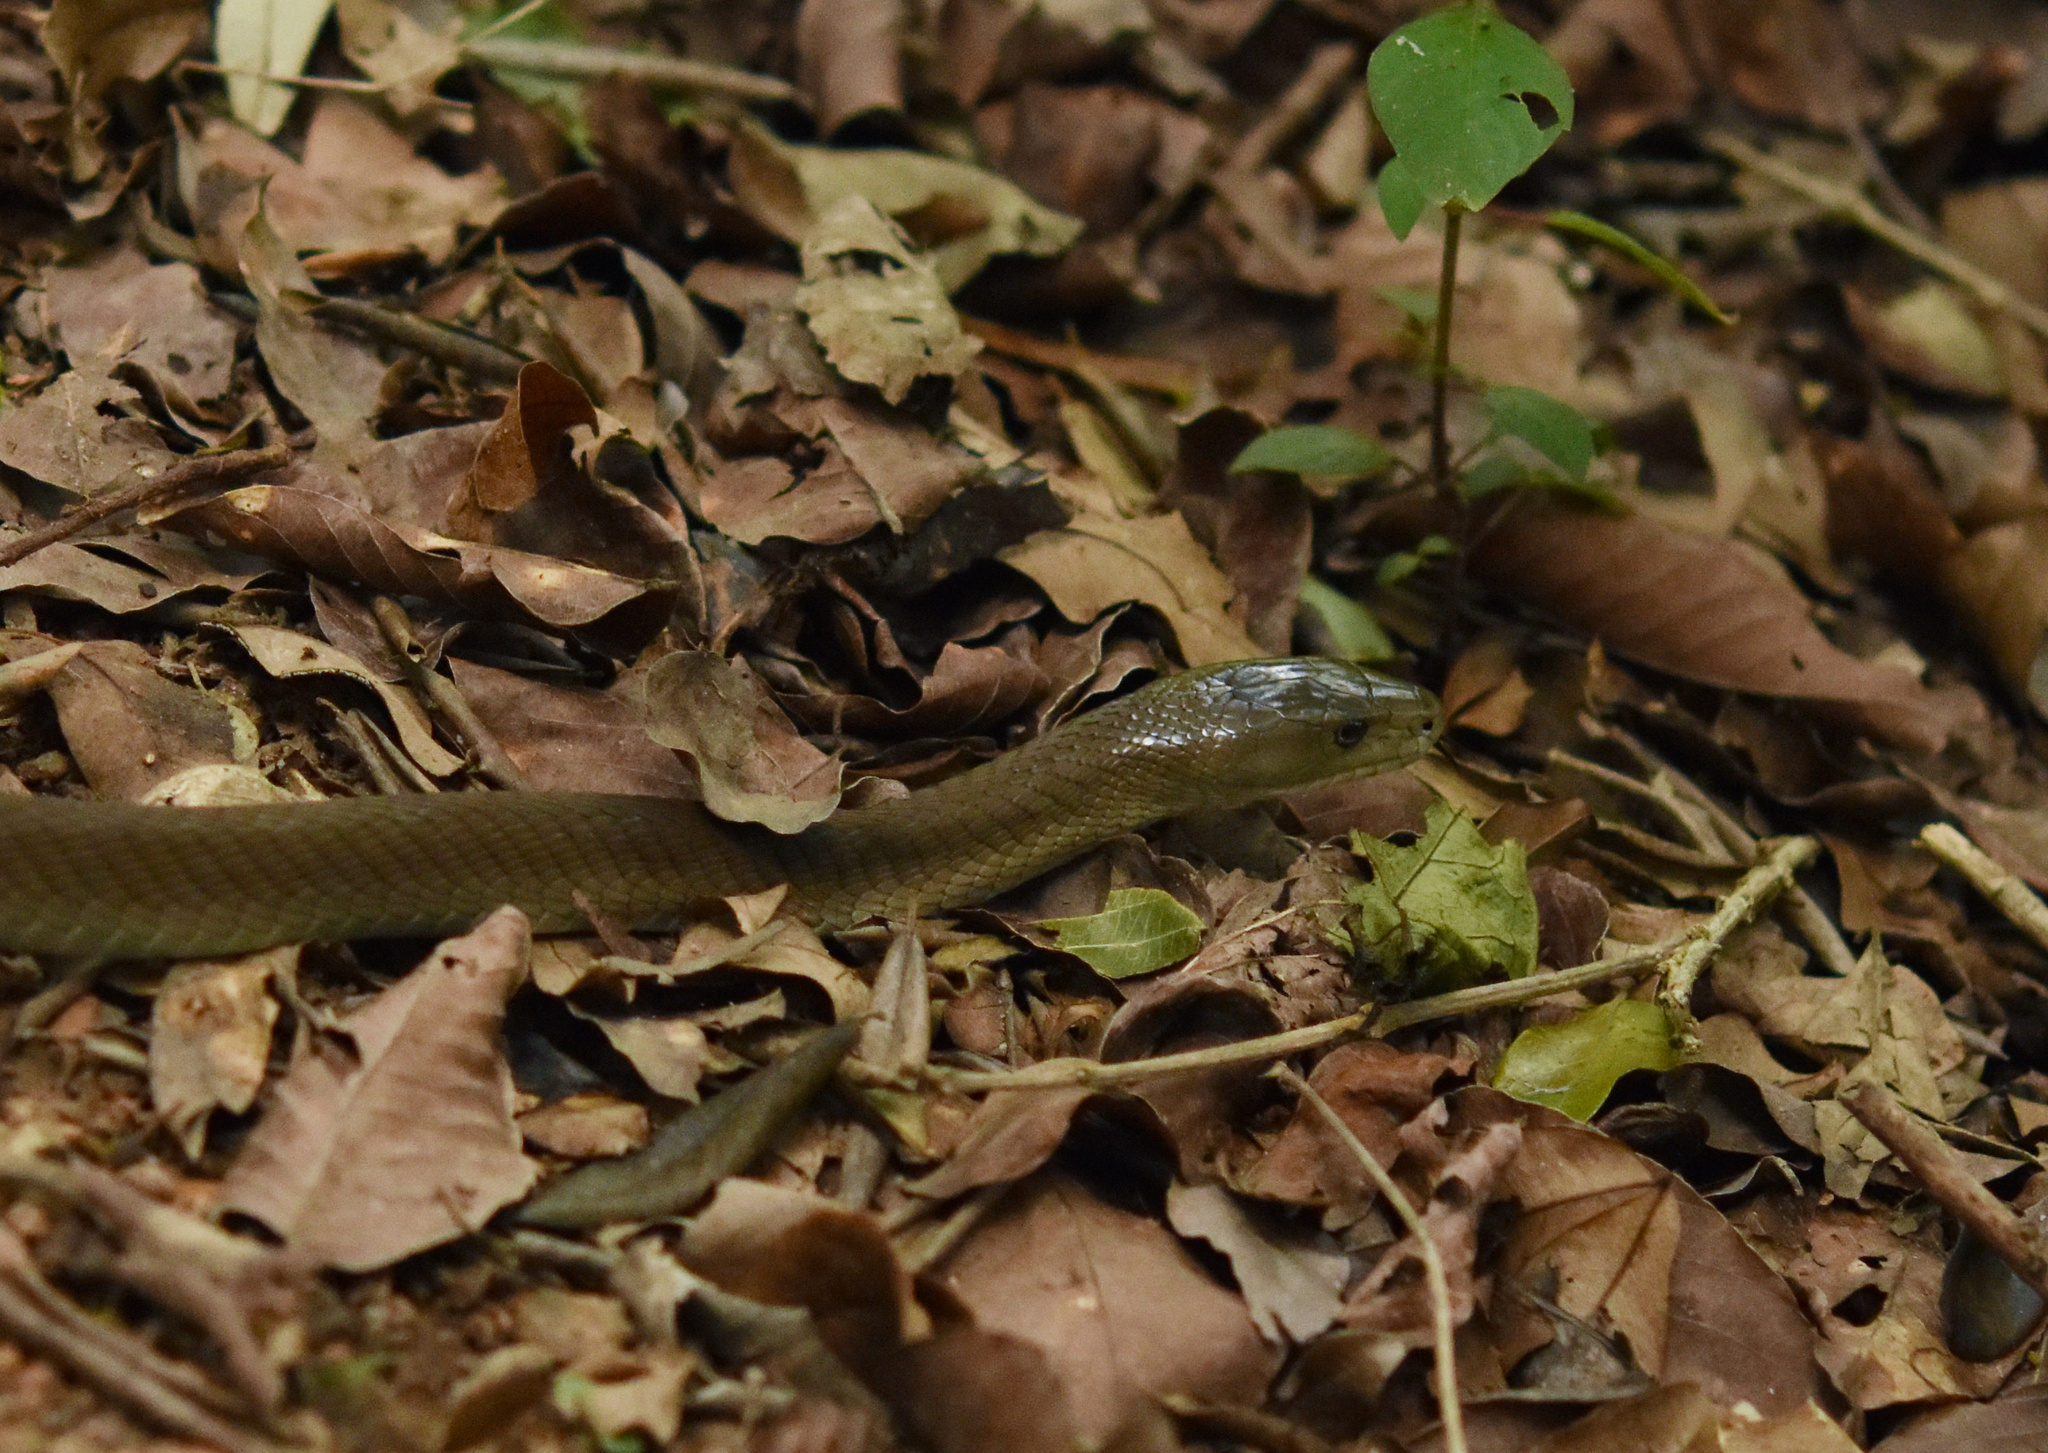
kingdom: Animalia
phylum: Chordata
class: Squamata
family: Elapidae
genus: Dendroaspis
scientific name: Dendroaspis polylepis
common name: Black mamba
